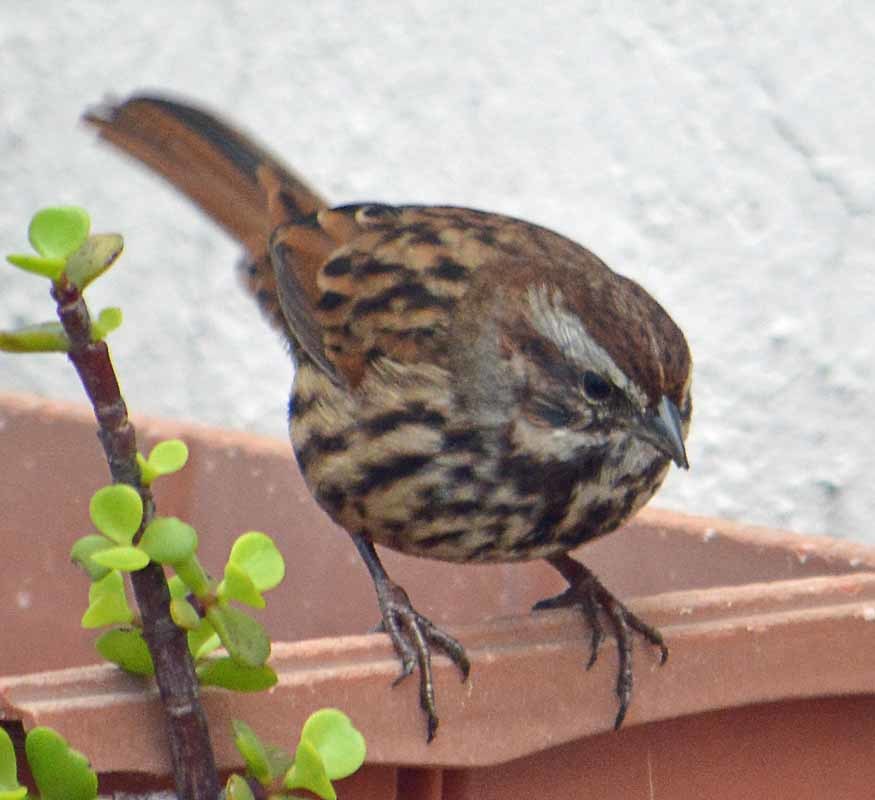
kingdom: Animalia
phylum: Chordata
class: Aves
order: Passeriformes
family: Passerellidae
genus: Melospiza
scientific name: Melospiza melodia
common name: Song sparrow
